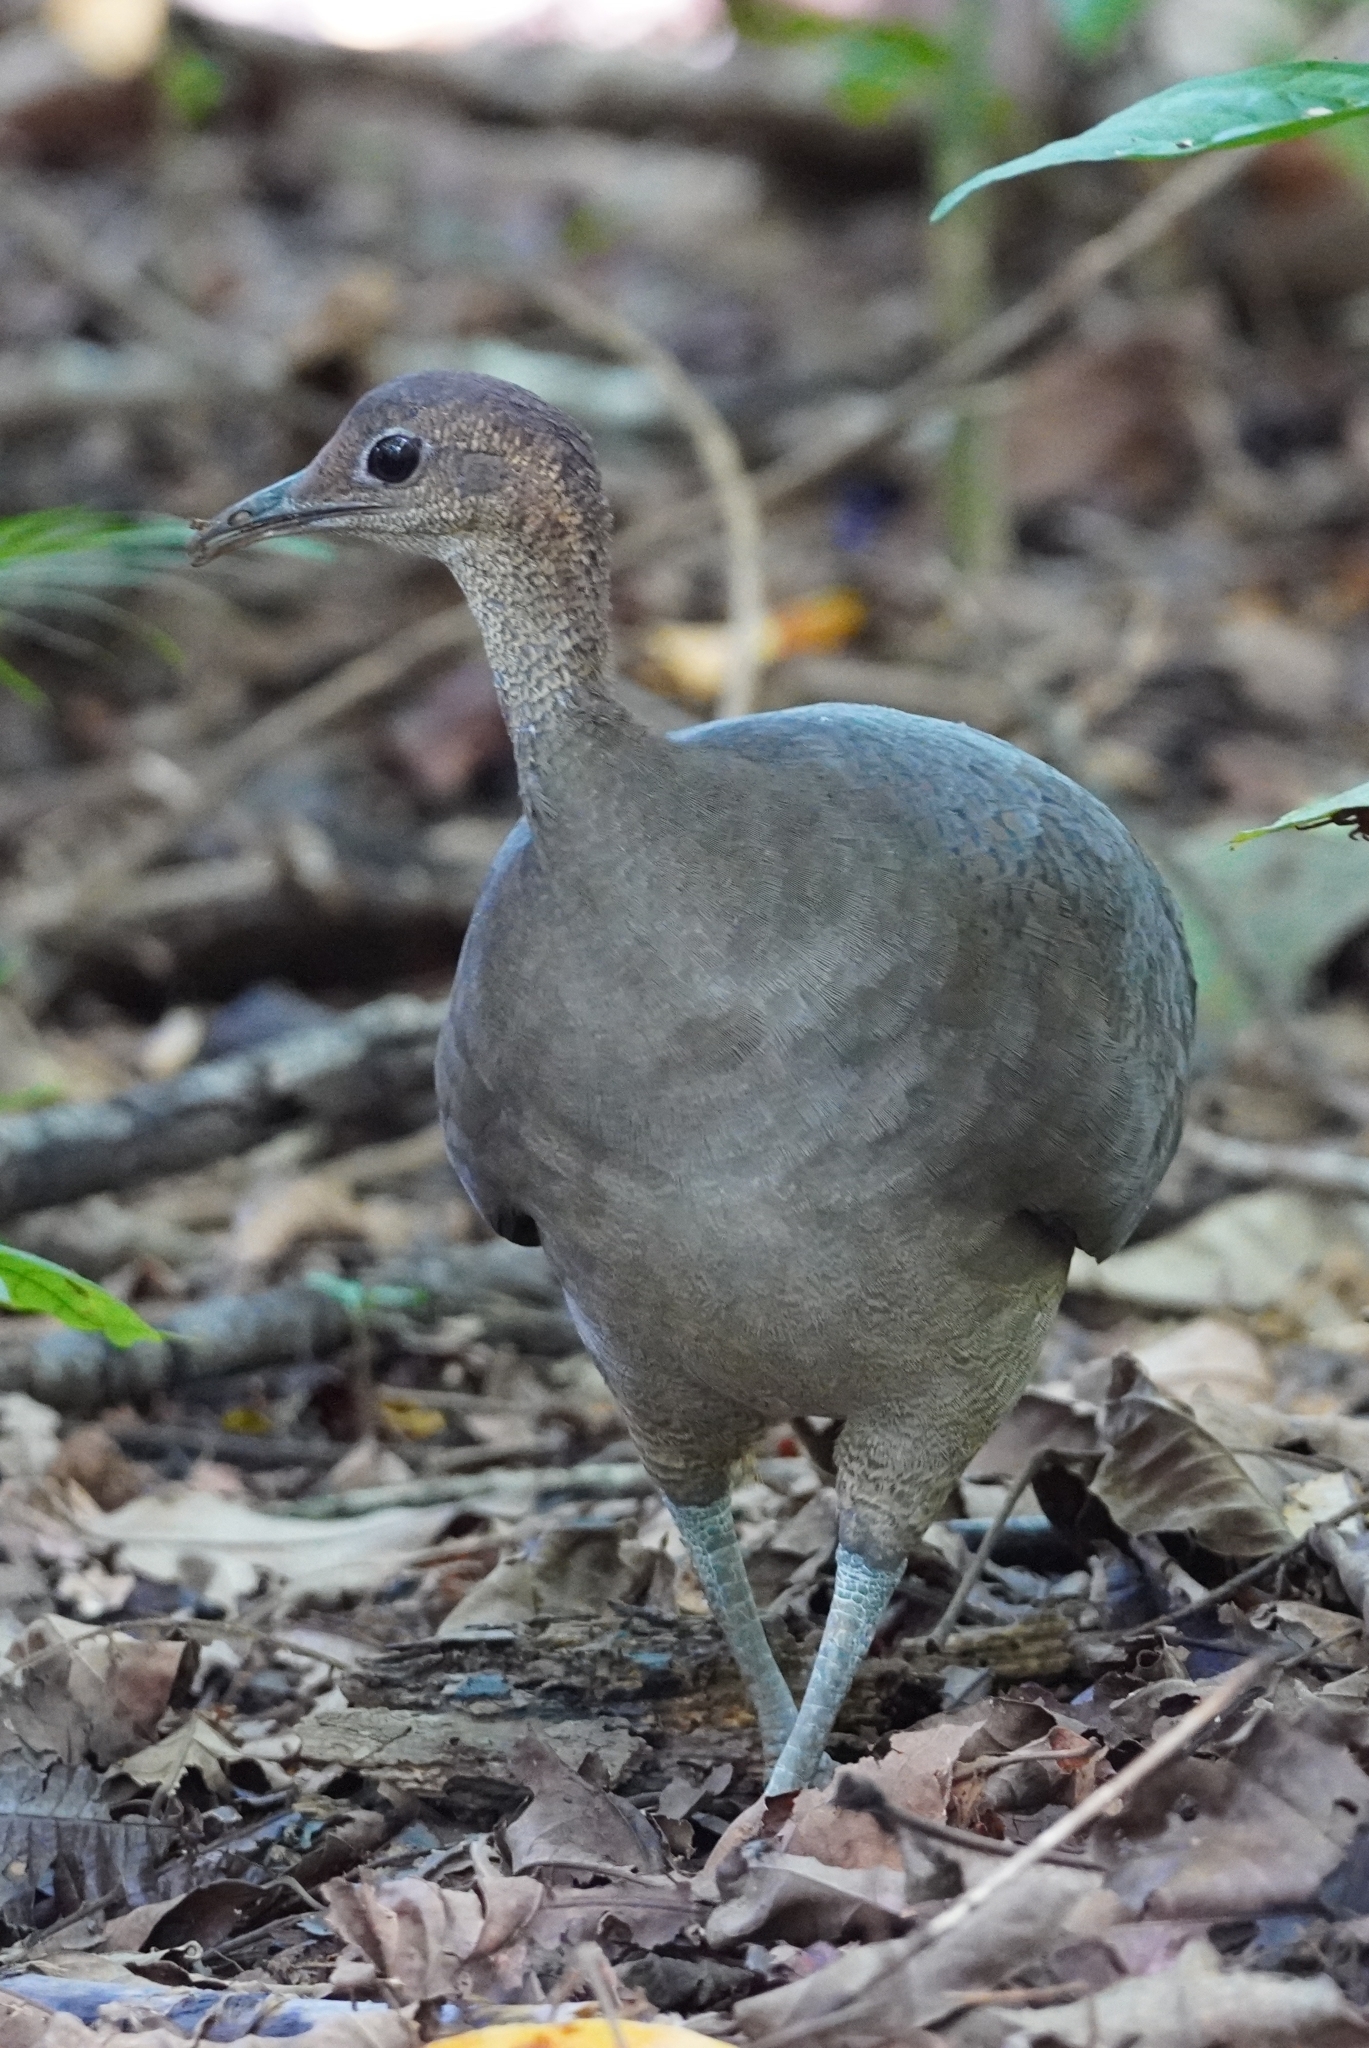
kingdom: Animalia
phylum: Chordata
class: Aves
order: Tinamiformes
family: Tinamidae
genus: Tinamus
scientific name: Tinamus major
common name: Great tinamou
